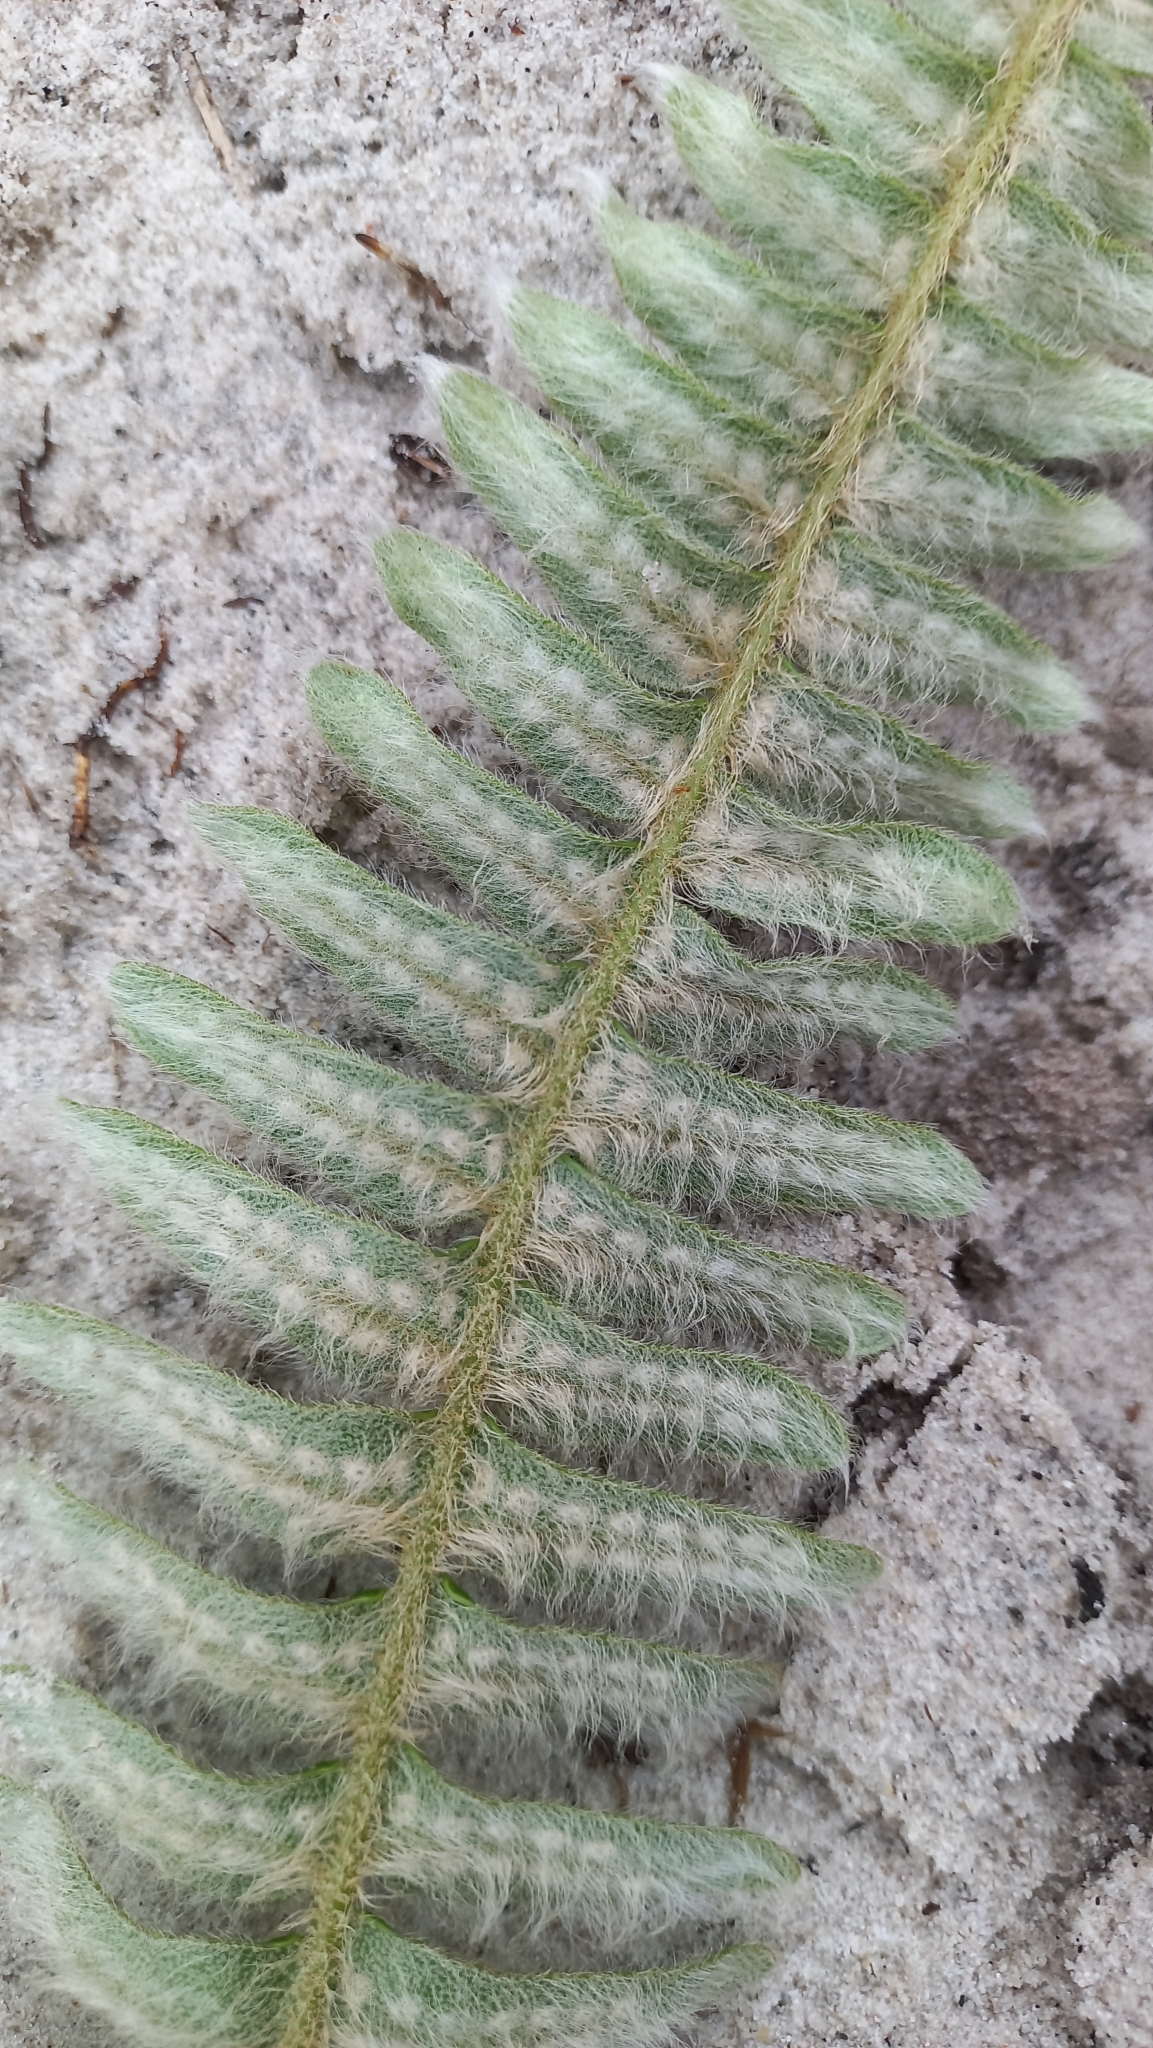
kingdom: Plantae
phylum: Tracheophyta
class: Polypodiopsida
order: Polypodiales
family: Polypodiaceae
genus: Pleopeltis
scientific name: Pleopeltis lepidopteris
